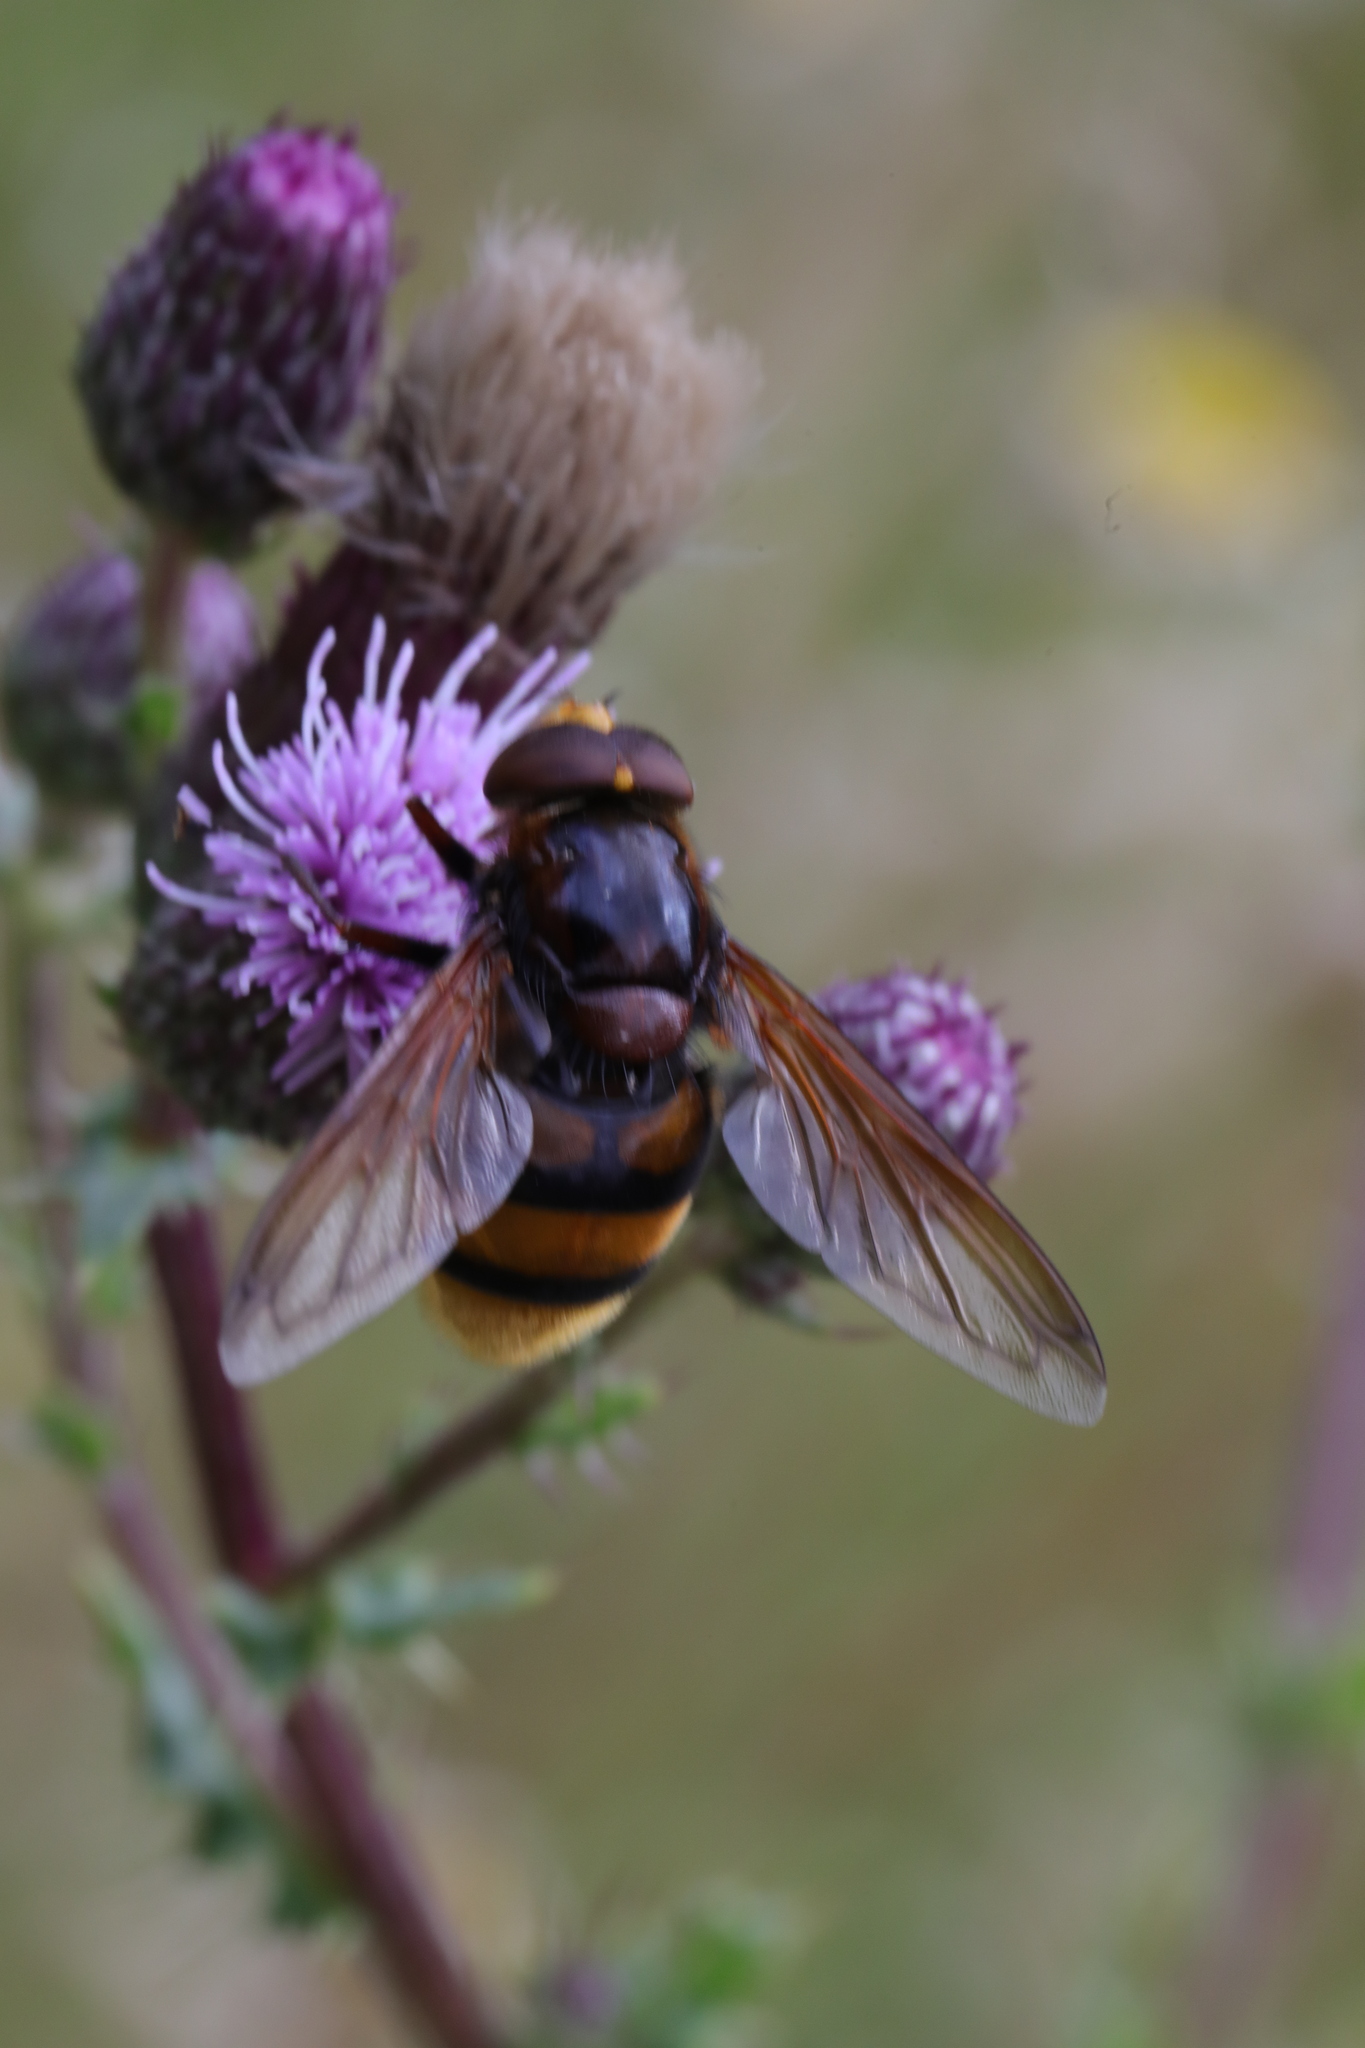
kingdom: Animalia
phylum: Arthropoda
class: Insecta
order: Diptera
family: Syrphidae
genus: Volucella
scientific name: Volucella zonaria
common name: Hornet hoverfly
